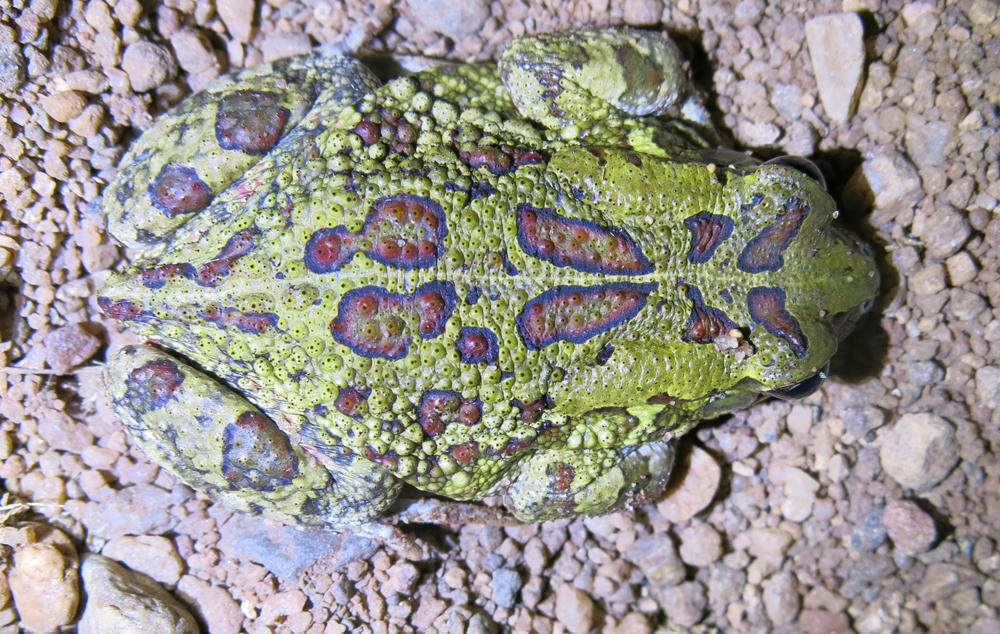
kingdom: Animalia
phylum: Chordata
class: Amphibia
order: Anura
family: Bufonidae
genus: Sclerophrys
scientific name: Sclerophrys garmani
